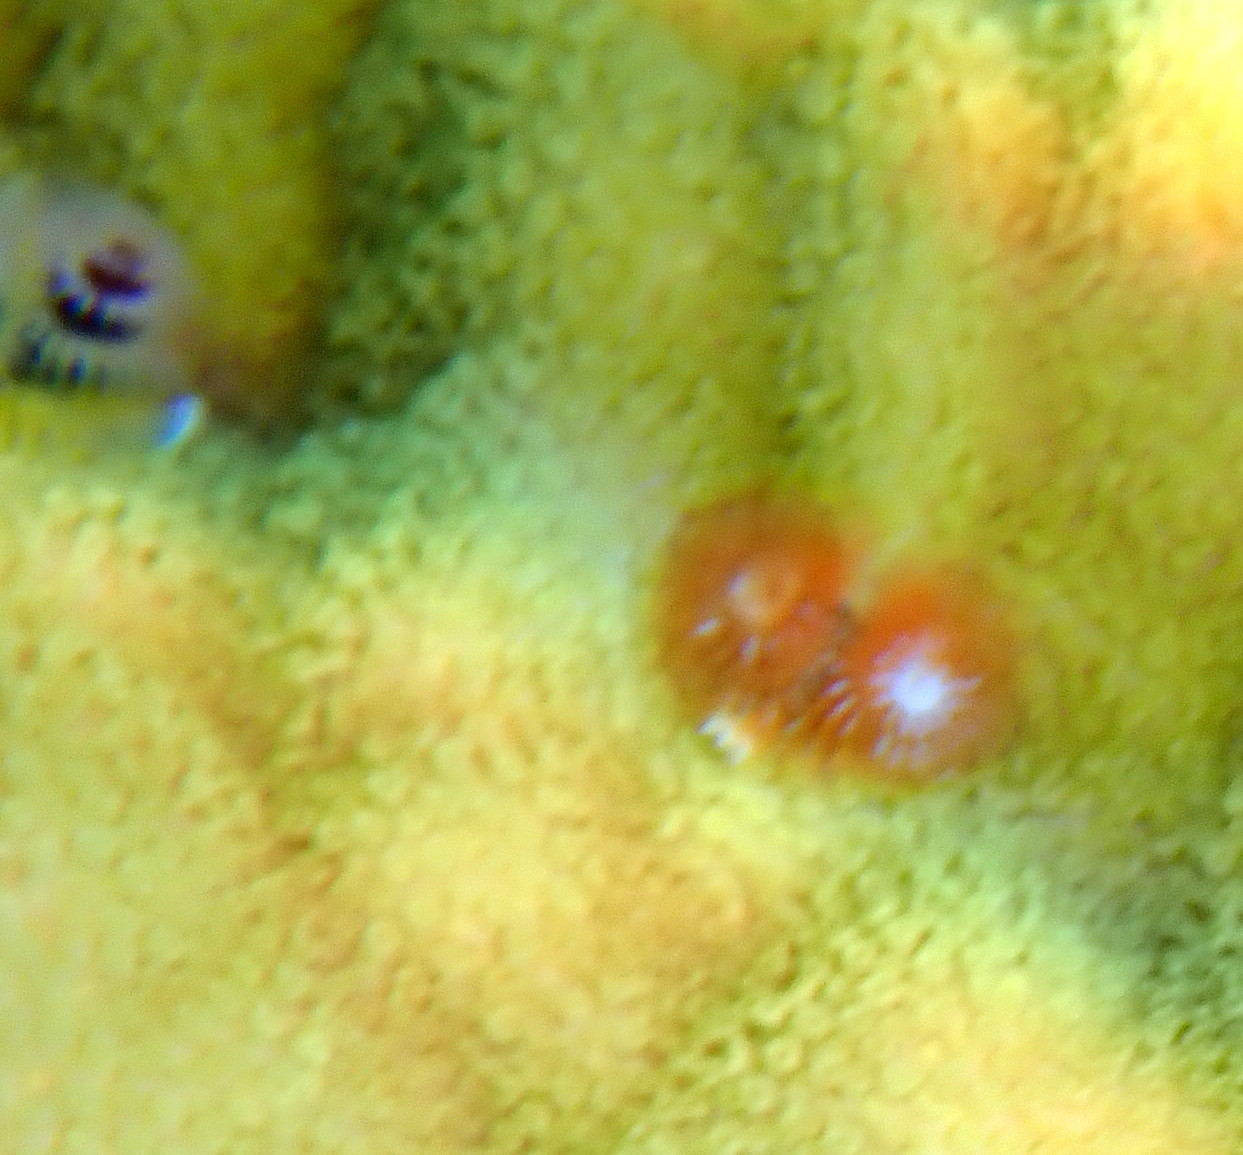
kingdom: Animalia
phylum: Annelida
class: Polychaeta
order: Sabellida
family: Serpulidae
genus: Spirobranchus
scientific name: Spirobranchus giganteus
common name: Christmas tree worm
